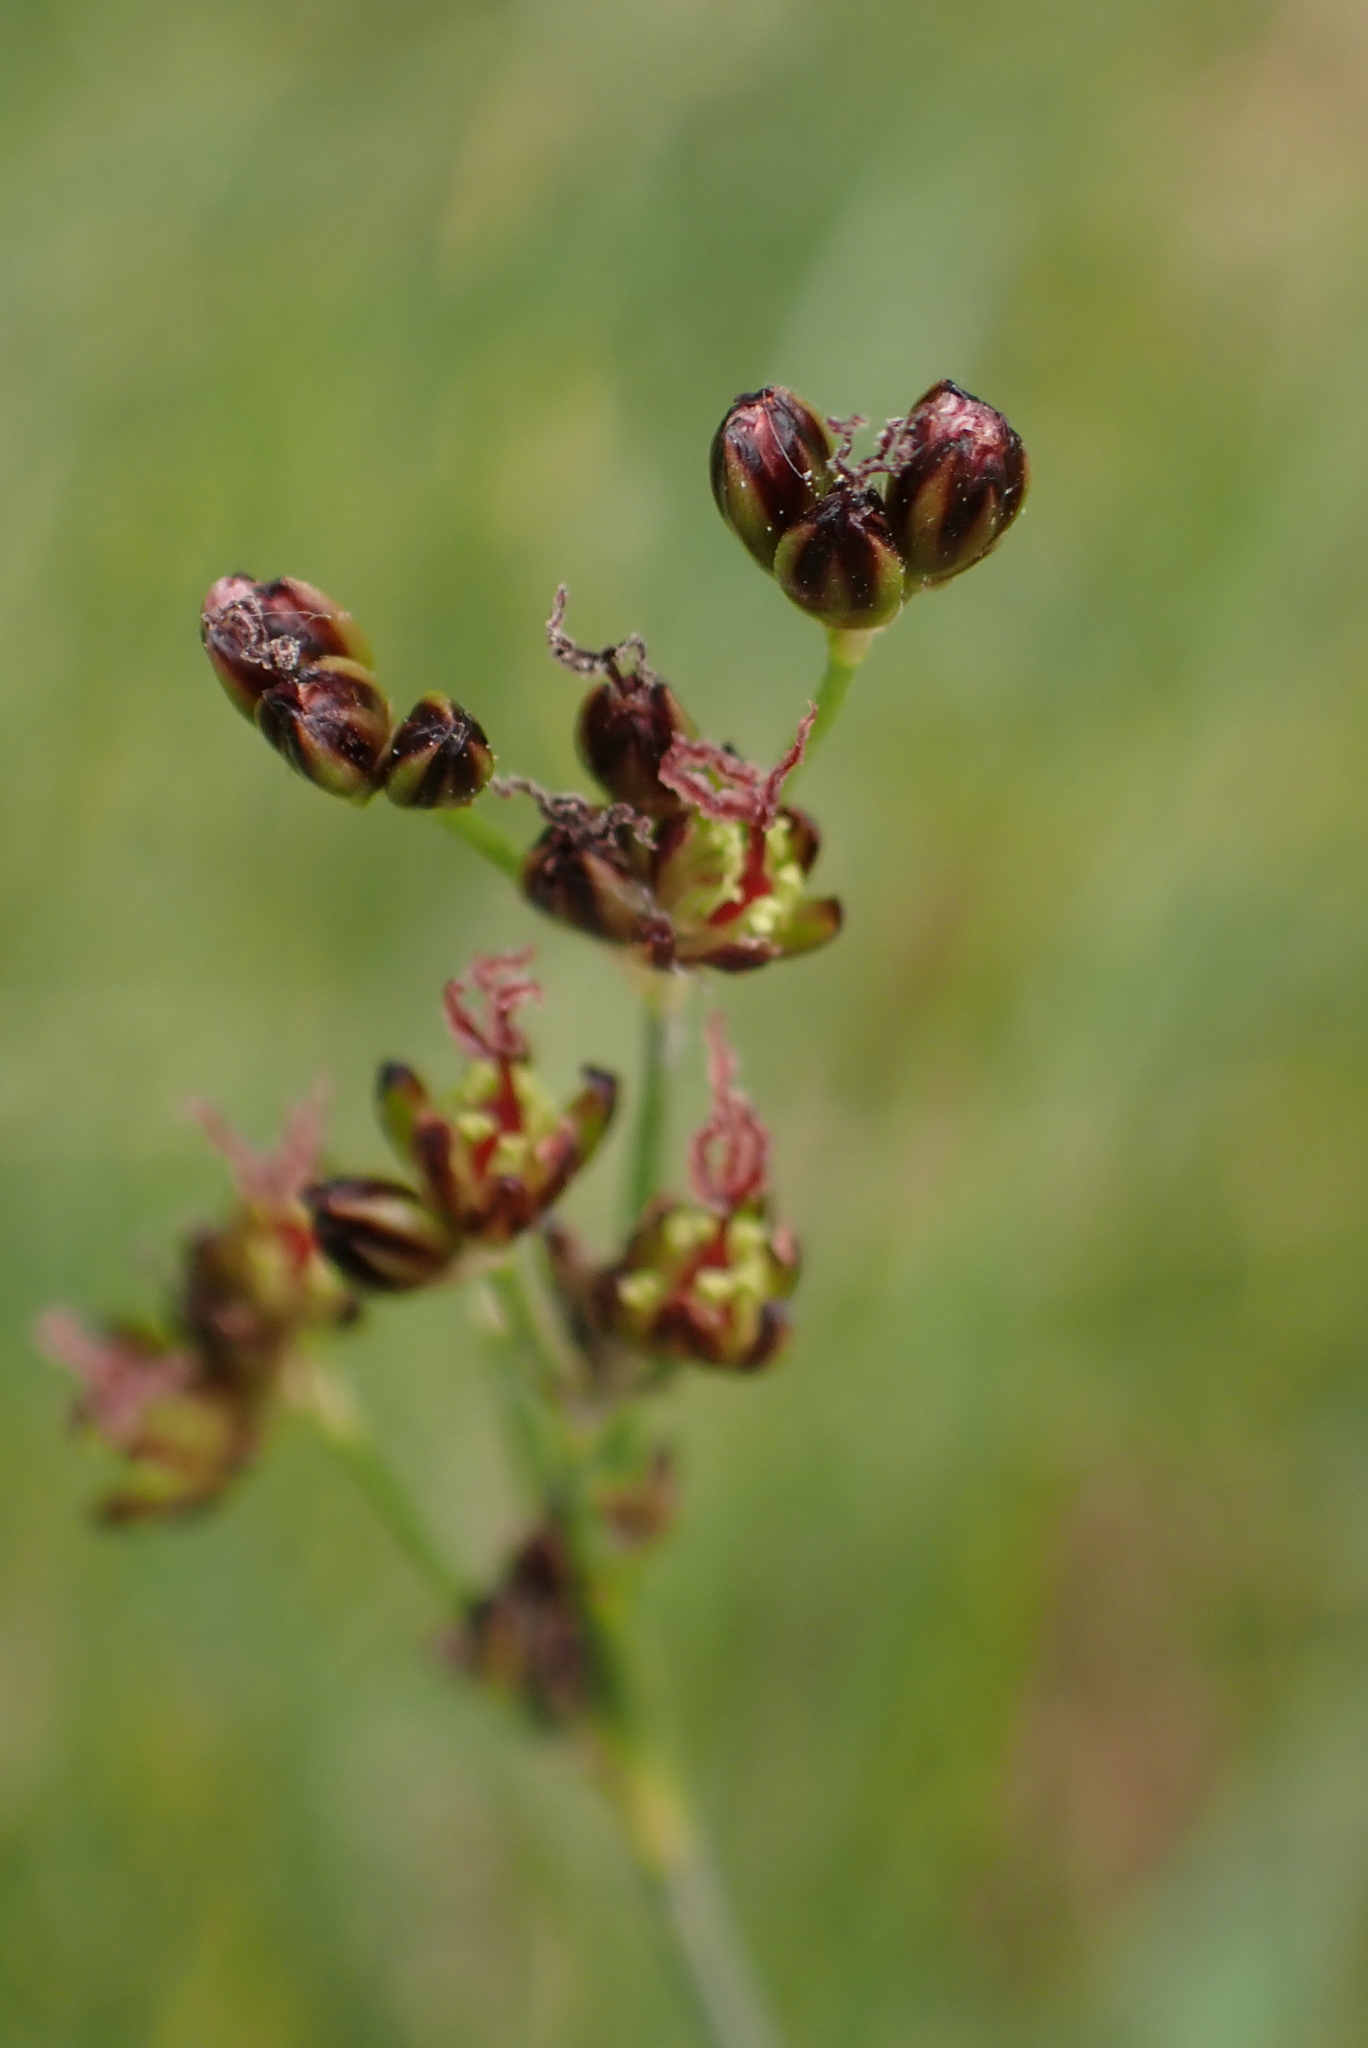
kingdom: Plantae
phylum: Tracheophyta
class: Liliopsida
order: Poales
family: Juncaceae
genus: Juncus
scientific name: Juncus gerardi
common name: Saltmarsh rush
